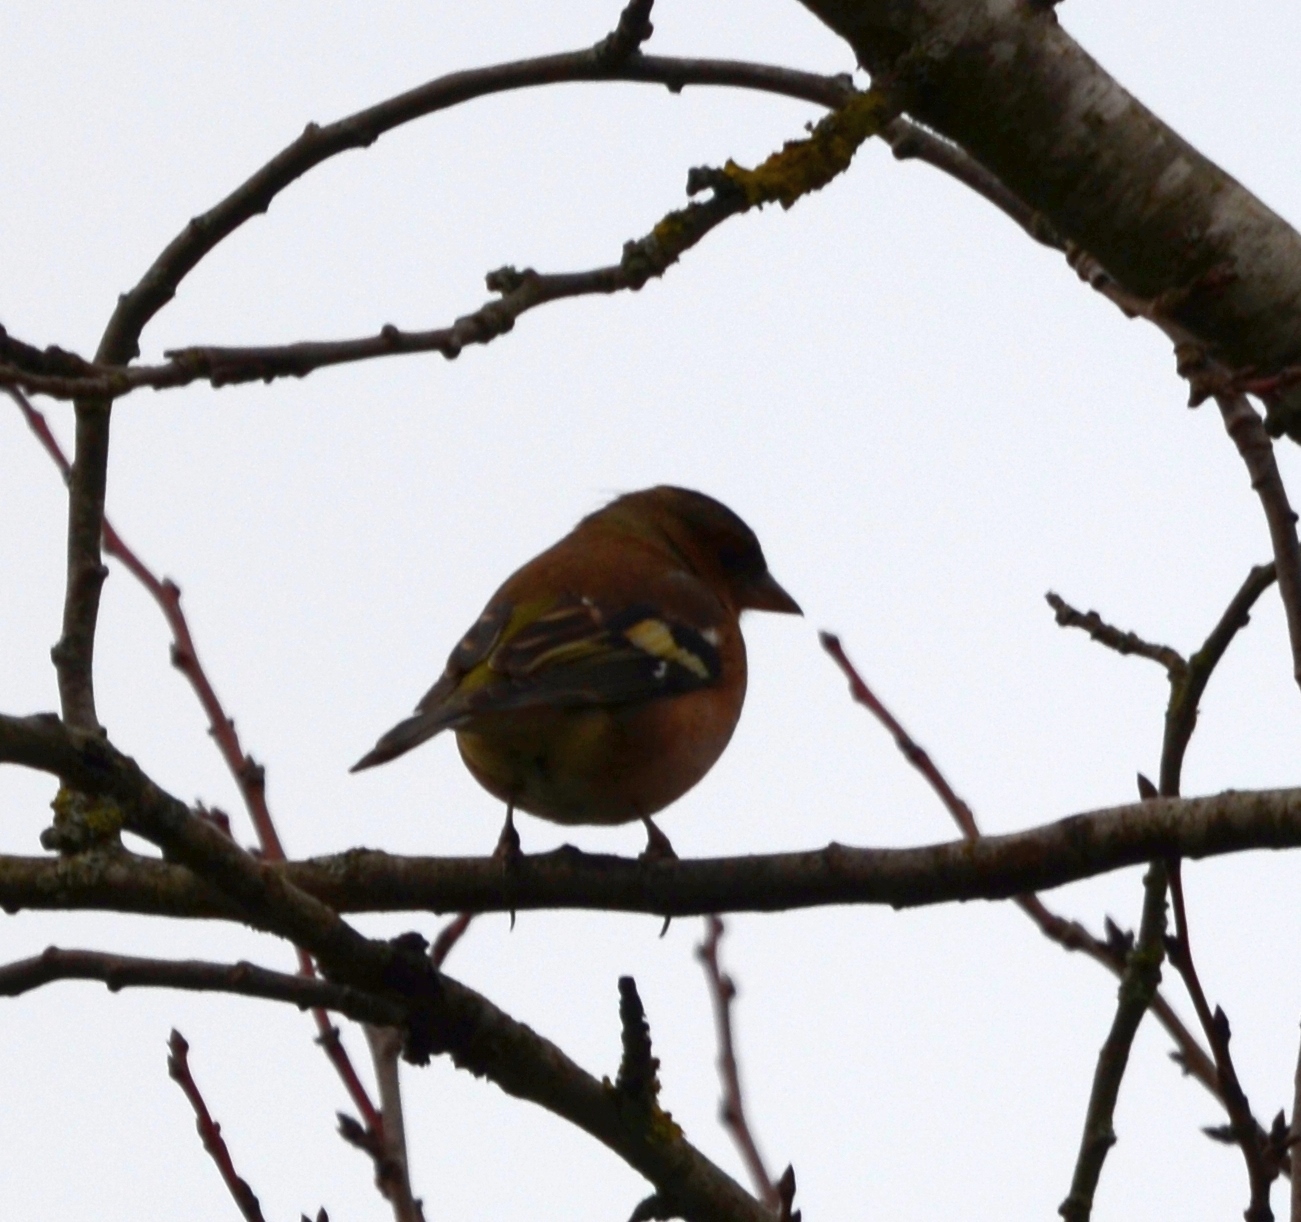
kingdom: Animalia
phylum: Chordata
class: Aves
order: Passeriformes
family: Fringillidae
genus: Fringilla
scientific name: Fringilla coelebs
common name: Common chaffinch
